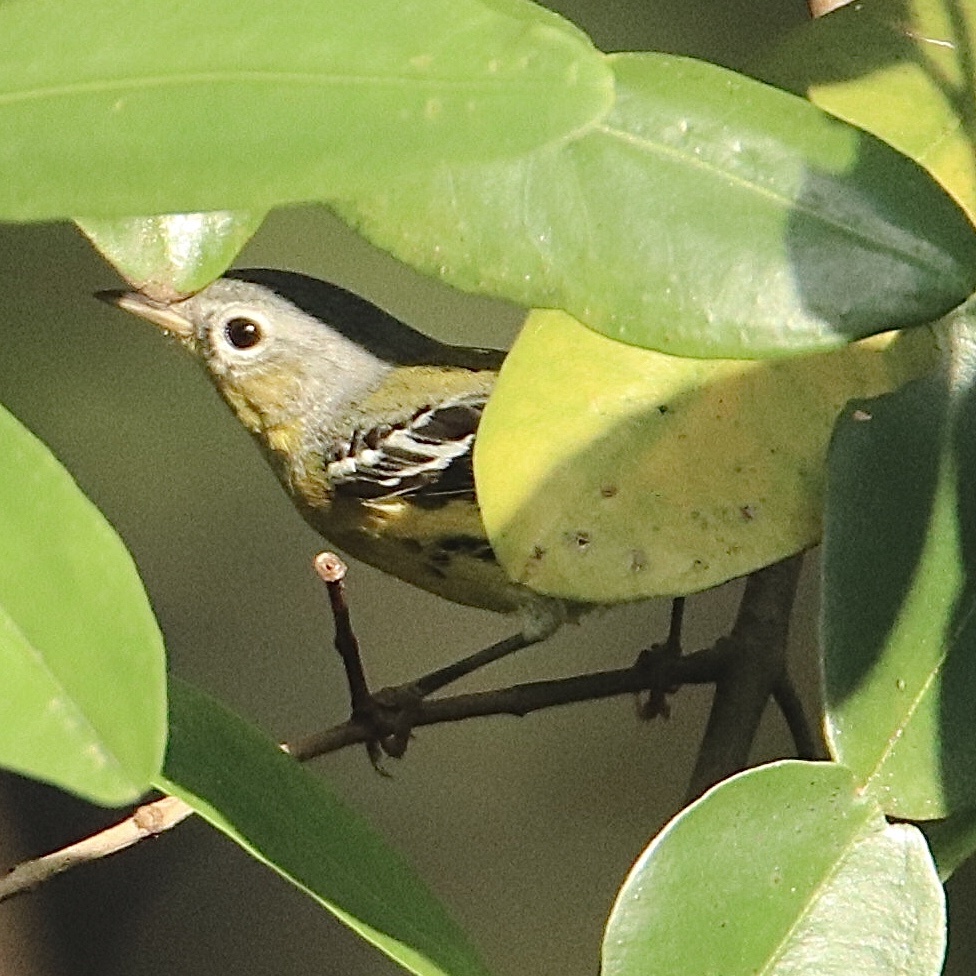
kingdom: Animalia
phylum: Chordata
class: Aves
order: Passeriformes
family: Parulidae
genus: Setophaga
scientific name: Setophaga magnolia
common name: Magnolia warbler
